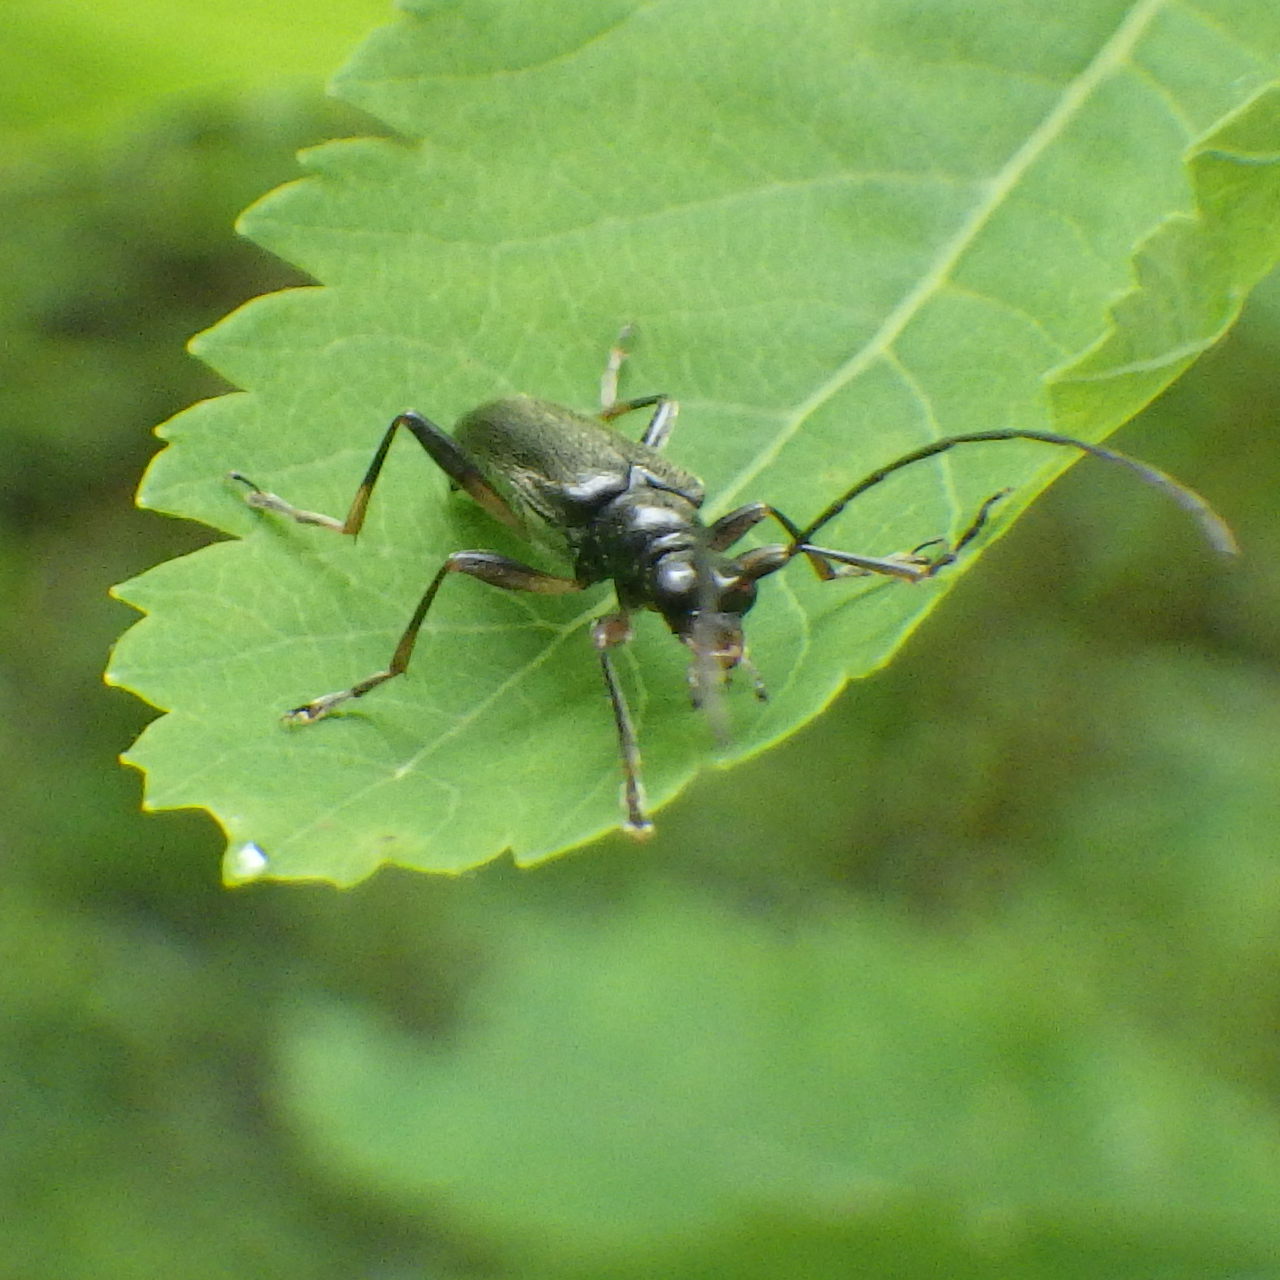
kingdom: Animalia
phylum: Arthropoda
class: Insecta
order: Coleoptera
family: Cerambycidae
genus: Pidonia
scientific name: Pidonia ruficollis
